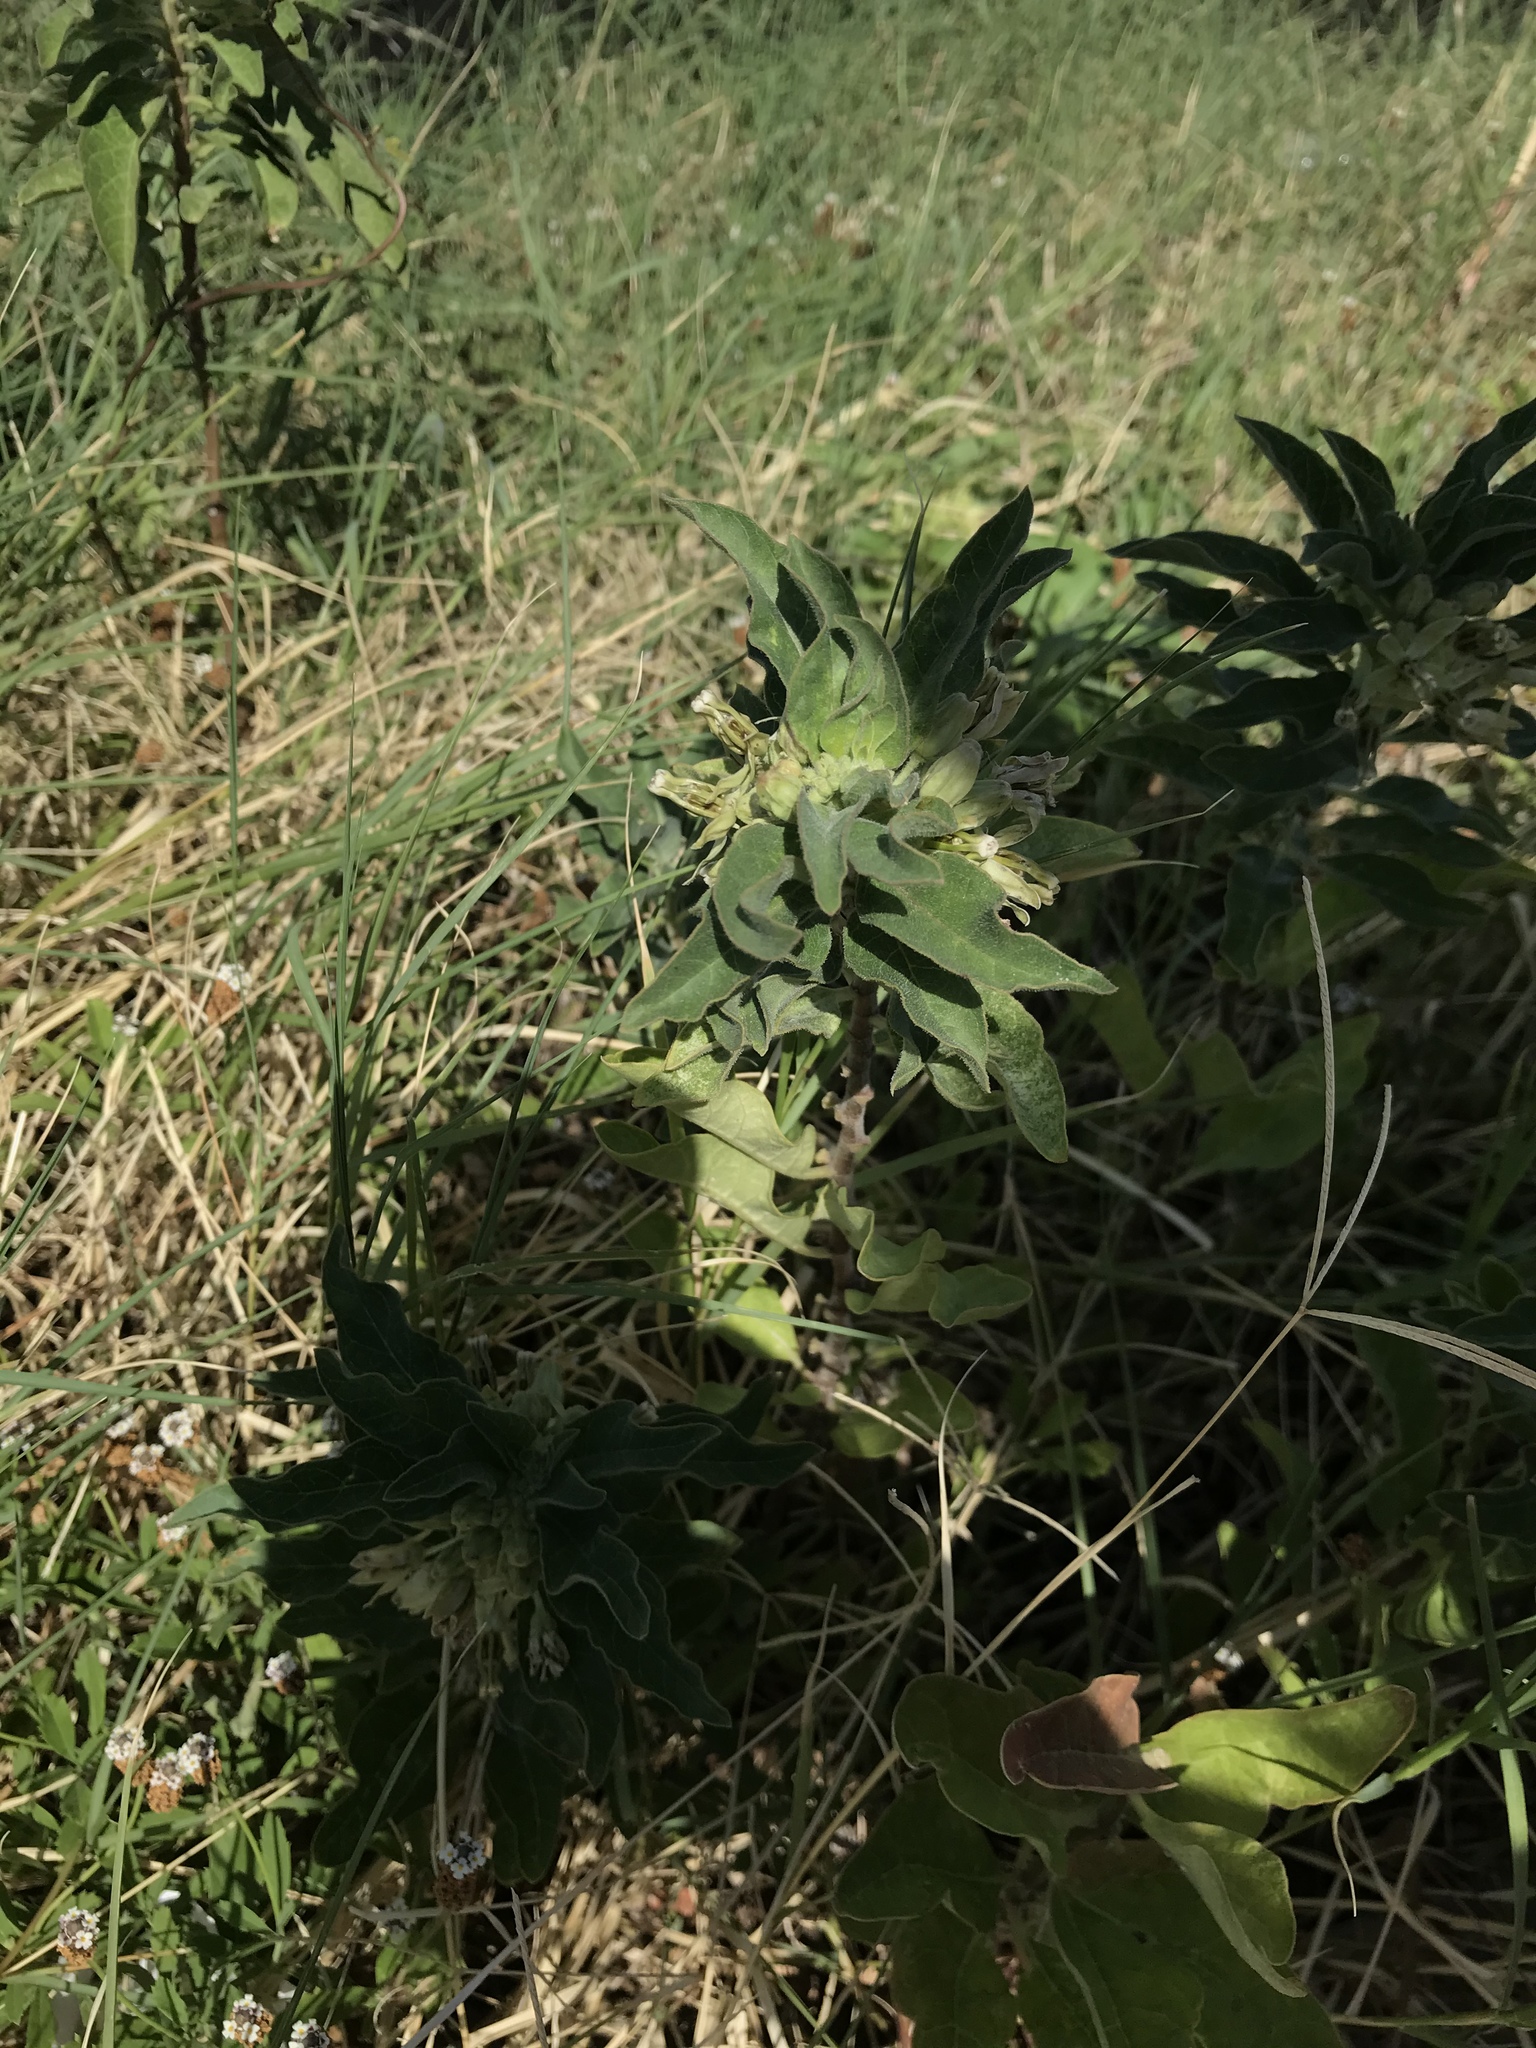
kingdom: Plantae
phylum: Tracheophyta
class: Magnoliopsida
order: Gentianales
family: Apocynaceae
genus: Asclepias
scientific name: Asclepias oenotheroides
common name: Zizotes milkweed
